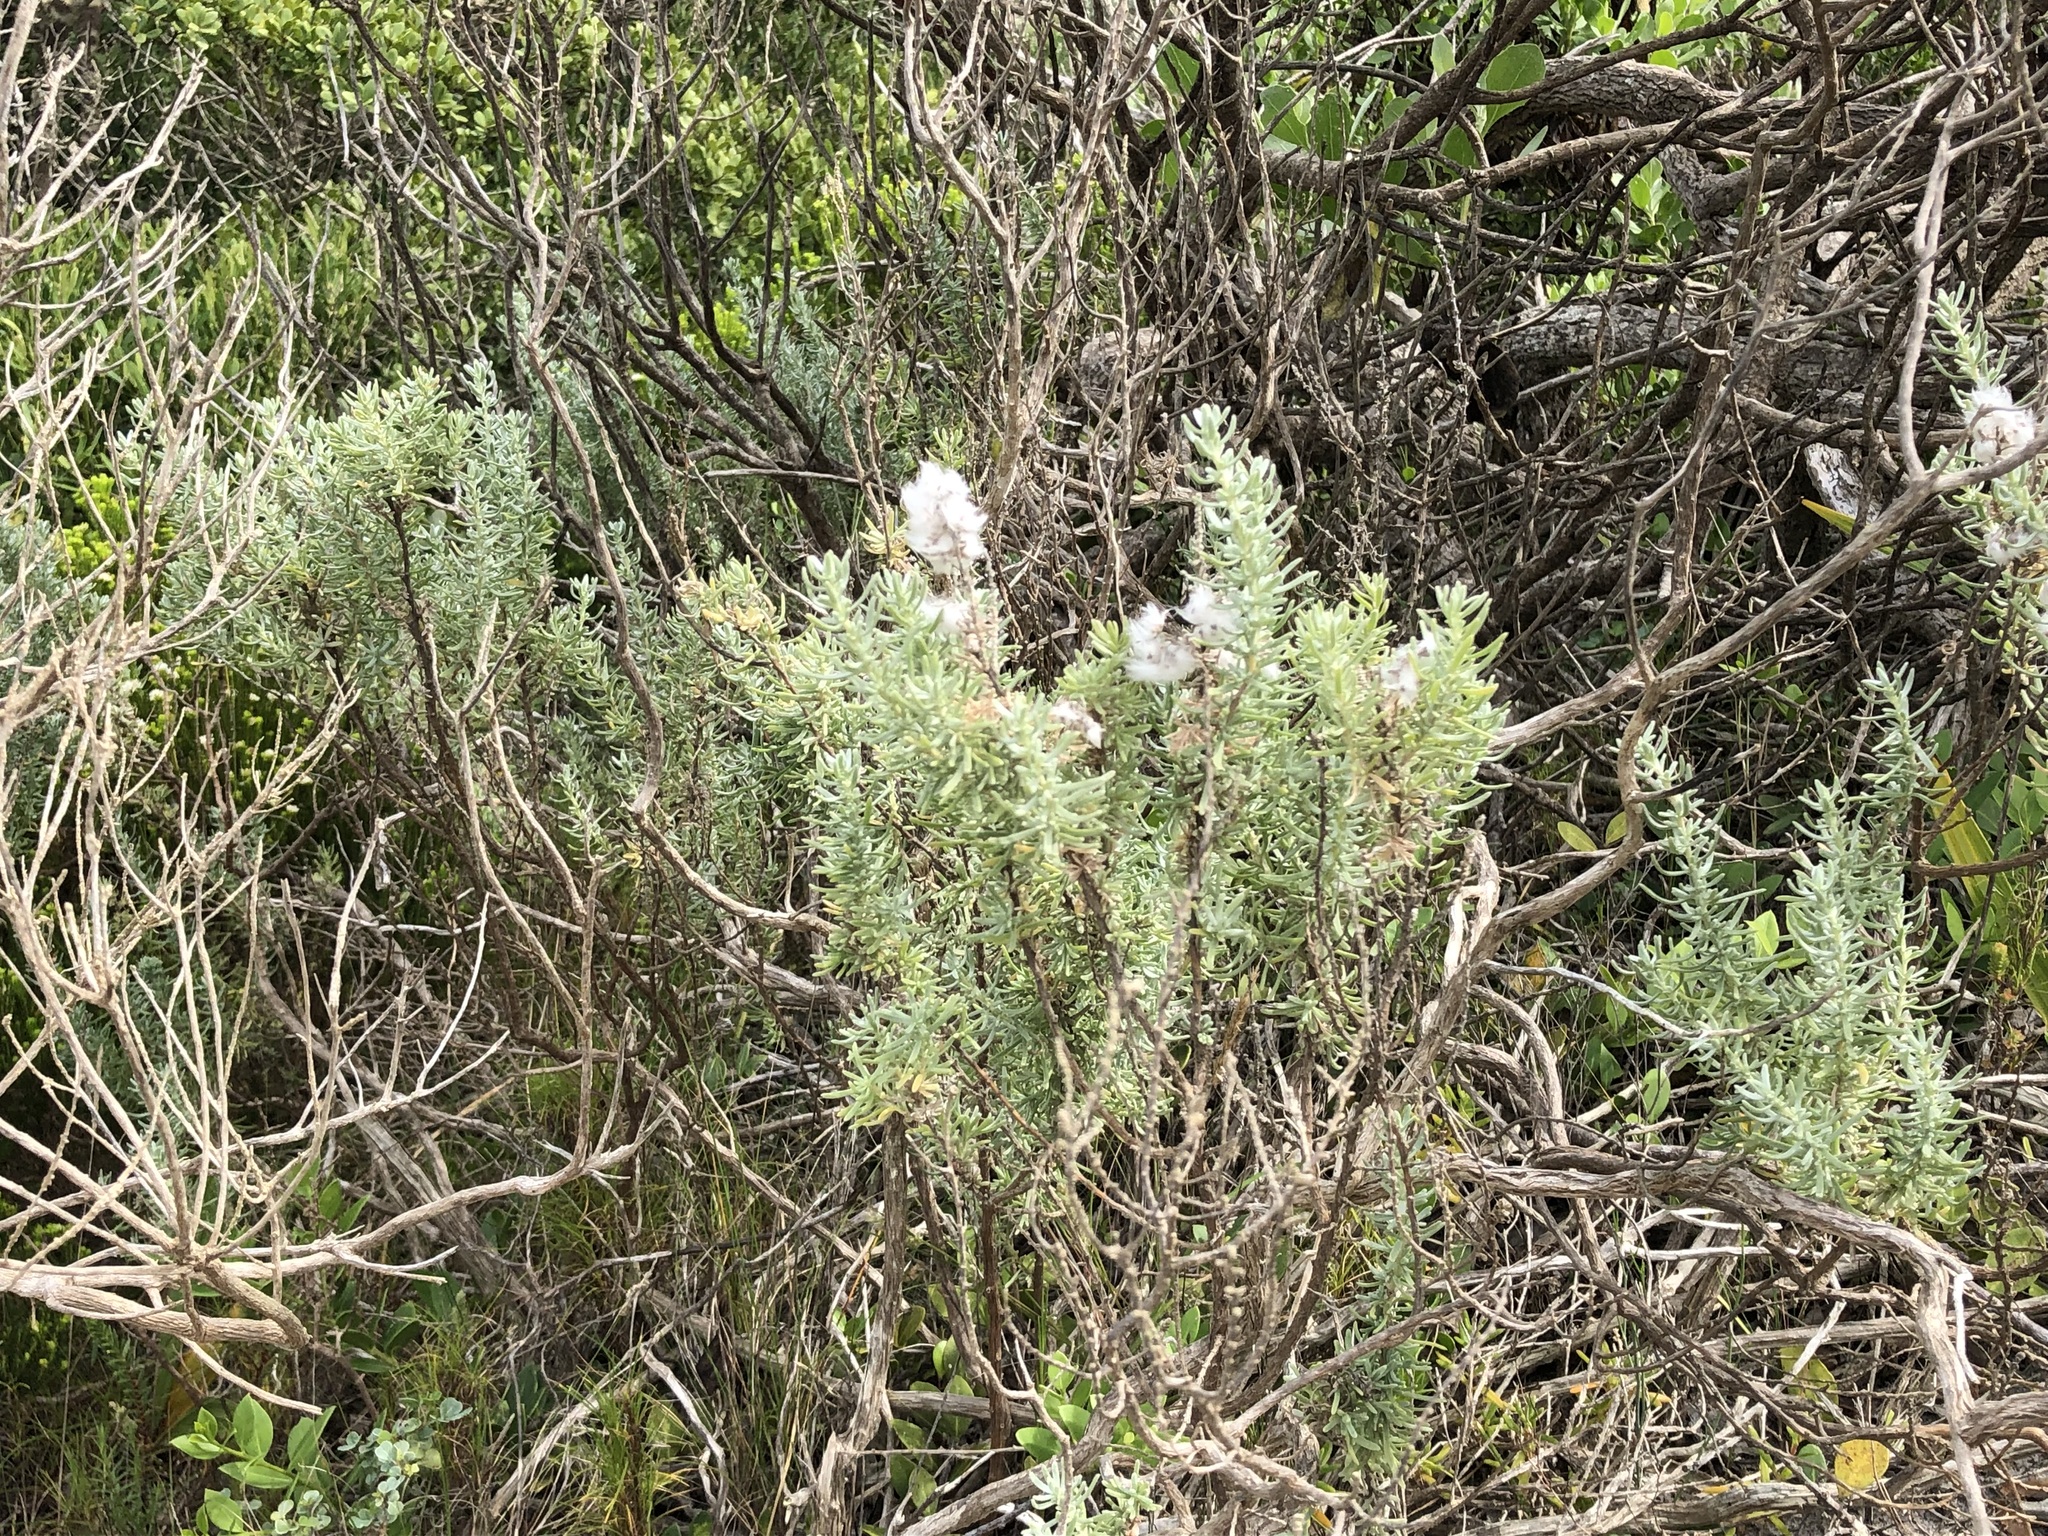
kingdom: Plantae
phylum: Tracheophyta
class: Magnoliopsida
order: Asterales
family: Asteraceae
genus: Eriocephalus
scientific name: Eriocephalus africanus
